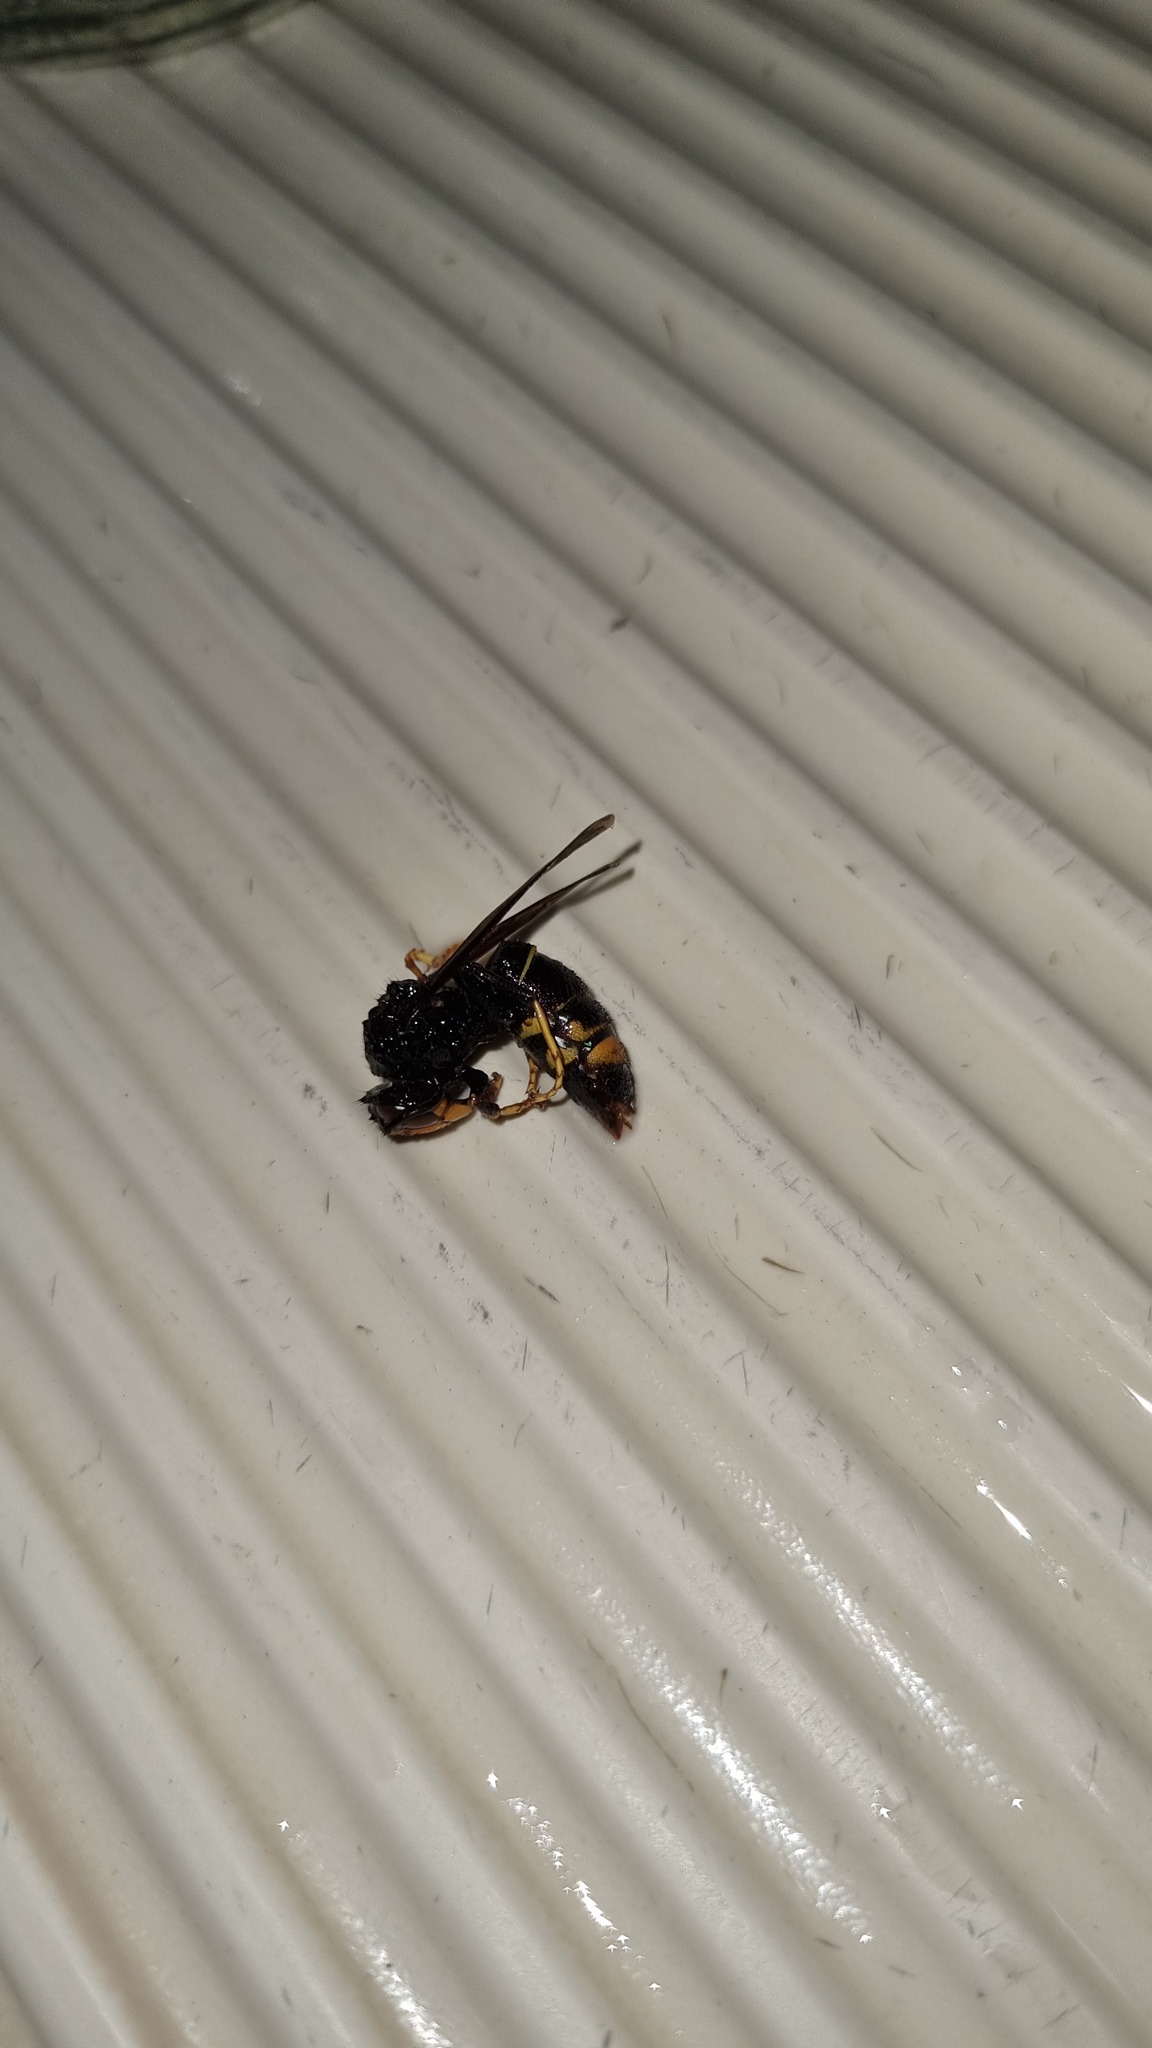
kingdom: Animalia
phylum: Arthropoda
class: Insecta
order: Hymenoptera
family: Vespidae
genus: Vespa
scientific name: Vespa velutina
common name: Asian hornet
